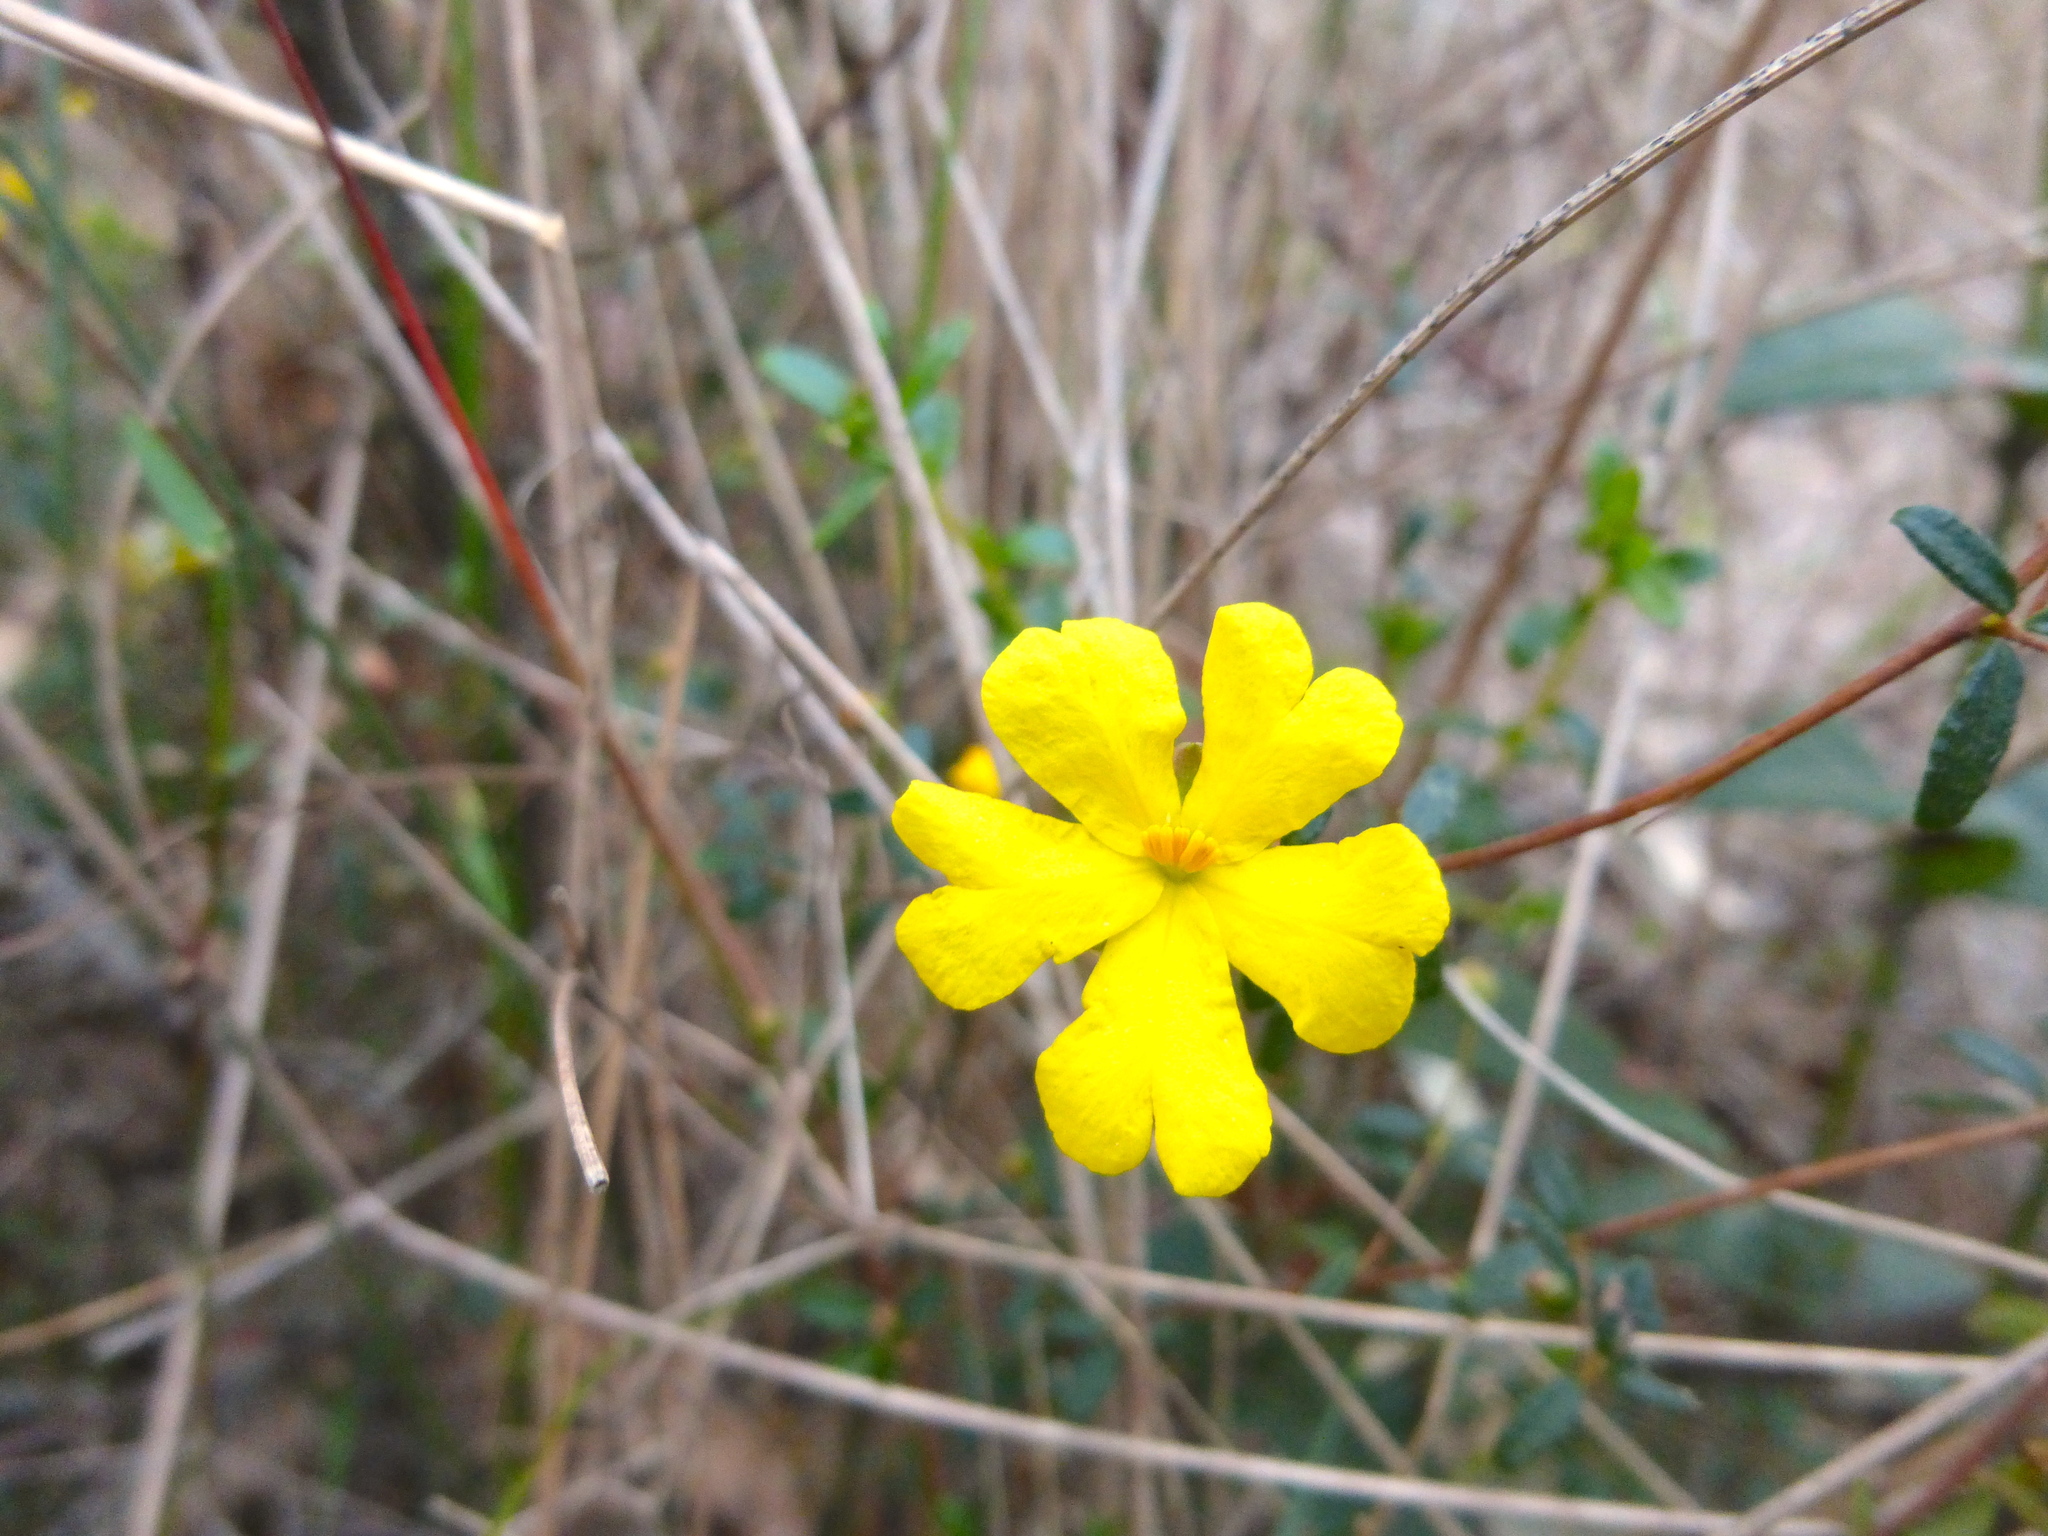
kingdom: Plantae
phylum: Tracheophyta
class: Magnoliopsida
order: Dilleniales
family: Dilleniaceae
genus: Hibbertia
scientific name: Hibbertia empetrifolia
